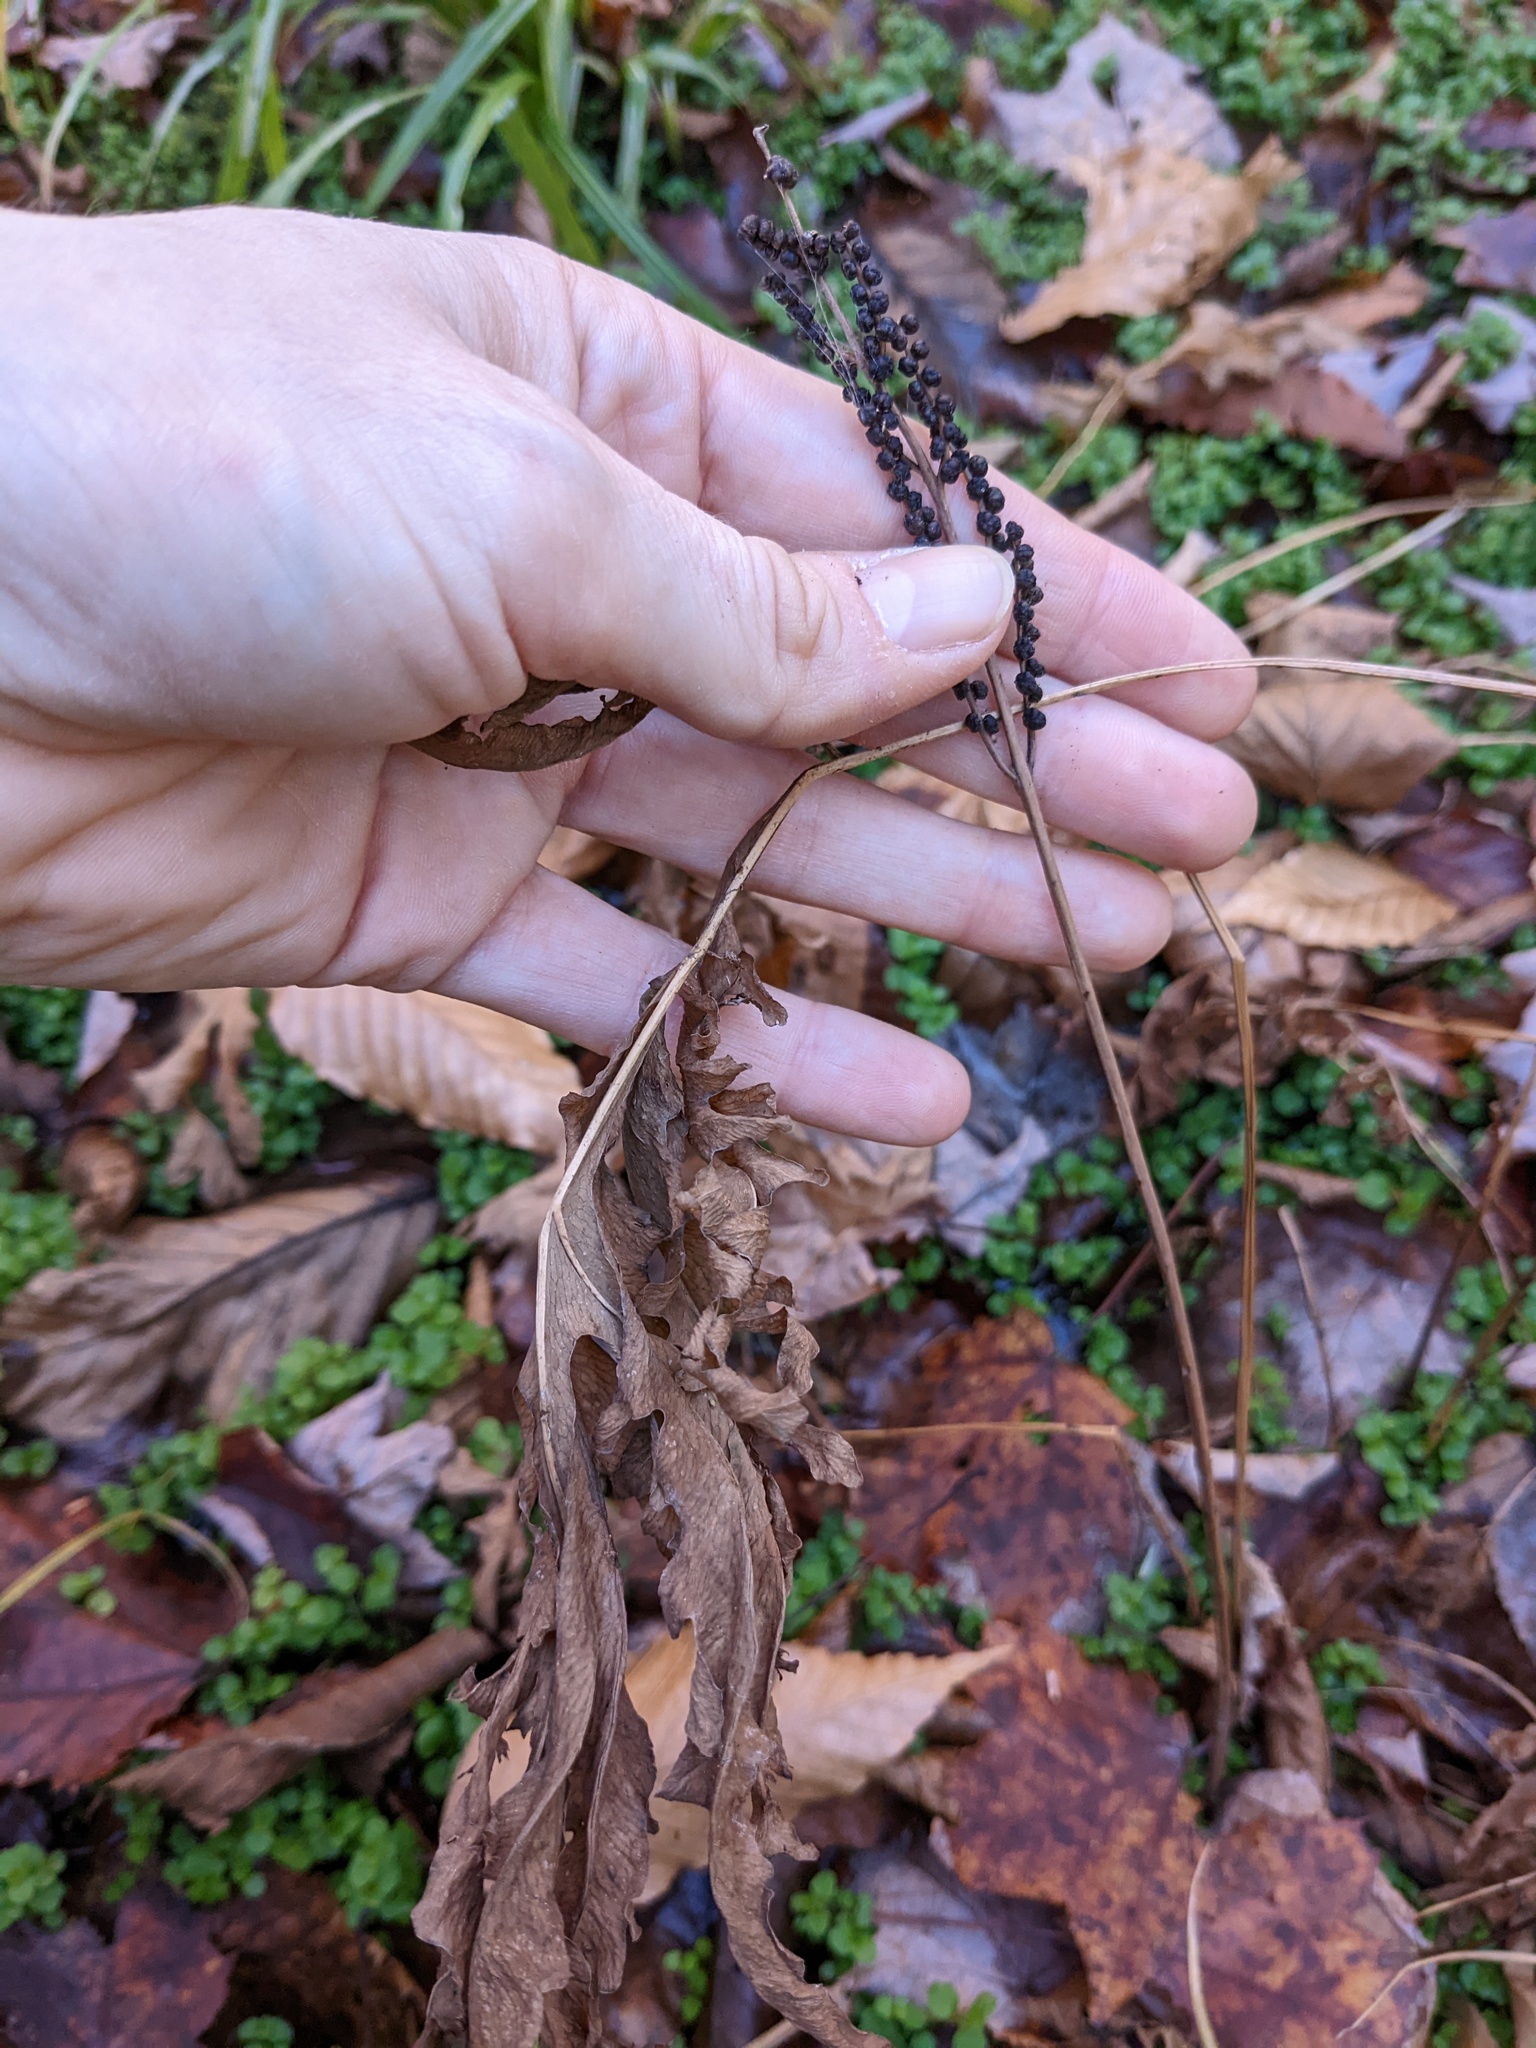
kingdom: Plantae
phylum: Tracheophyta
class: Polypodiopsida
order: Polypodiales
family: Onocleaceae
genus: Onoclea
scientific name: Onoclea sensibilis
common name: Sensitive fern
